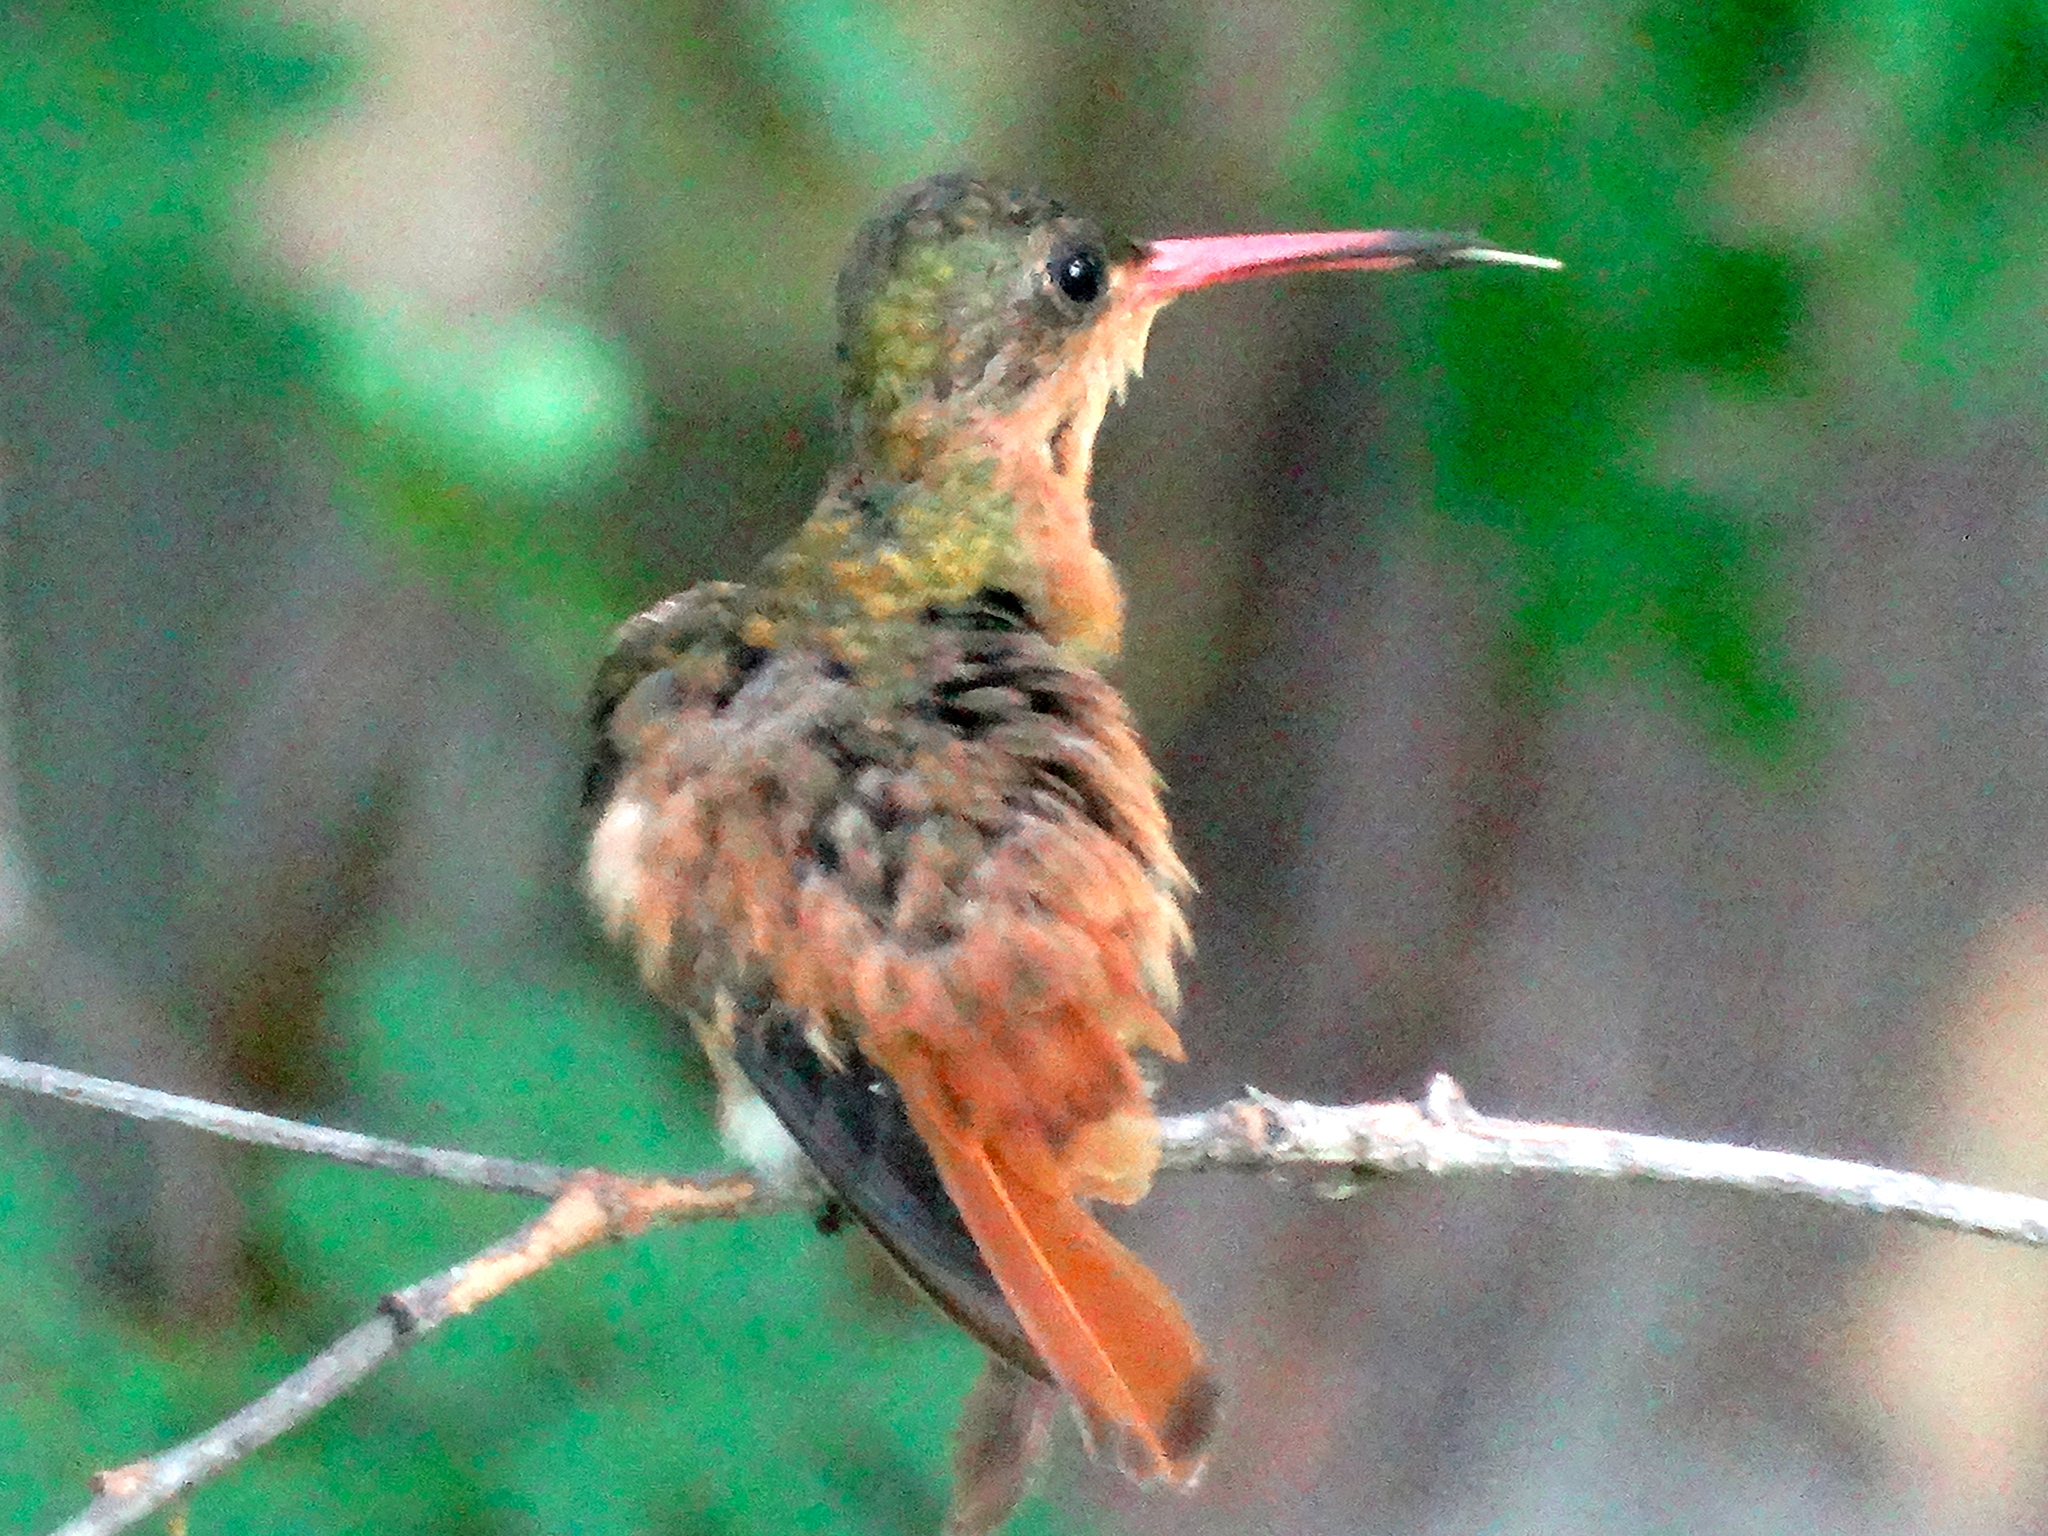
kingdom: Animalia
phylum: Chordata
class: Aves
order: Apodiformes
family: Trochilidae
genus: Amazilia
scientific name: Amazilia rutila
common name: Cinnamon hummingbird
